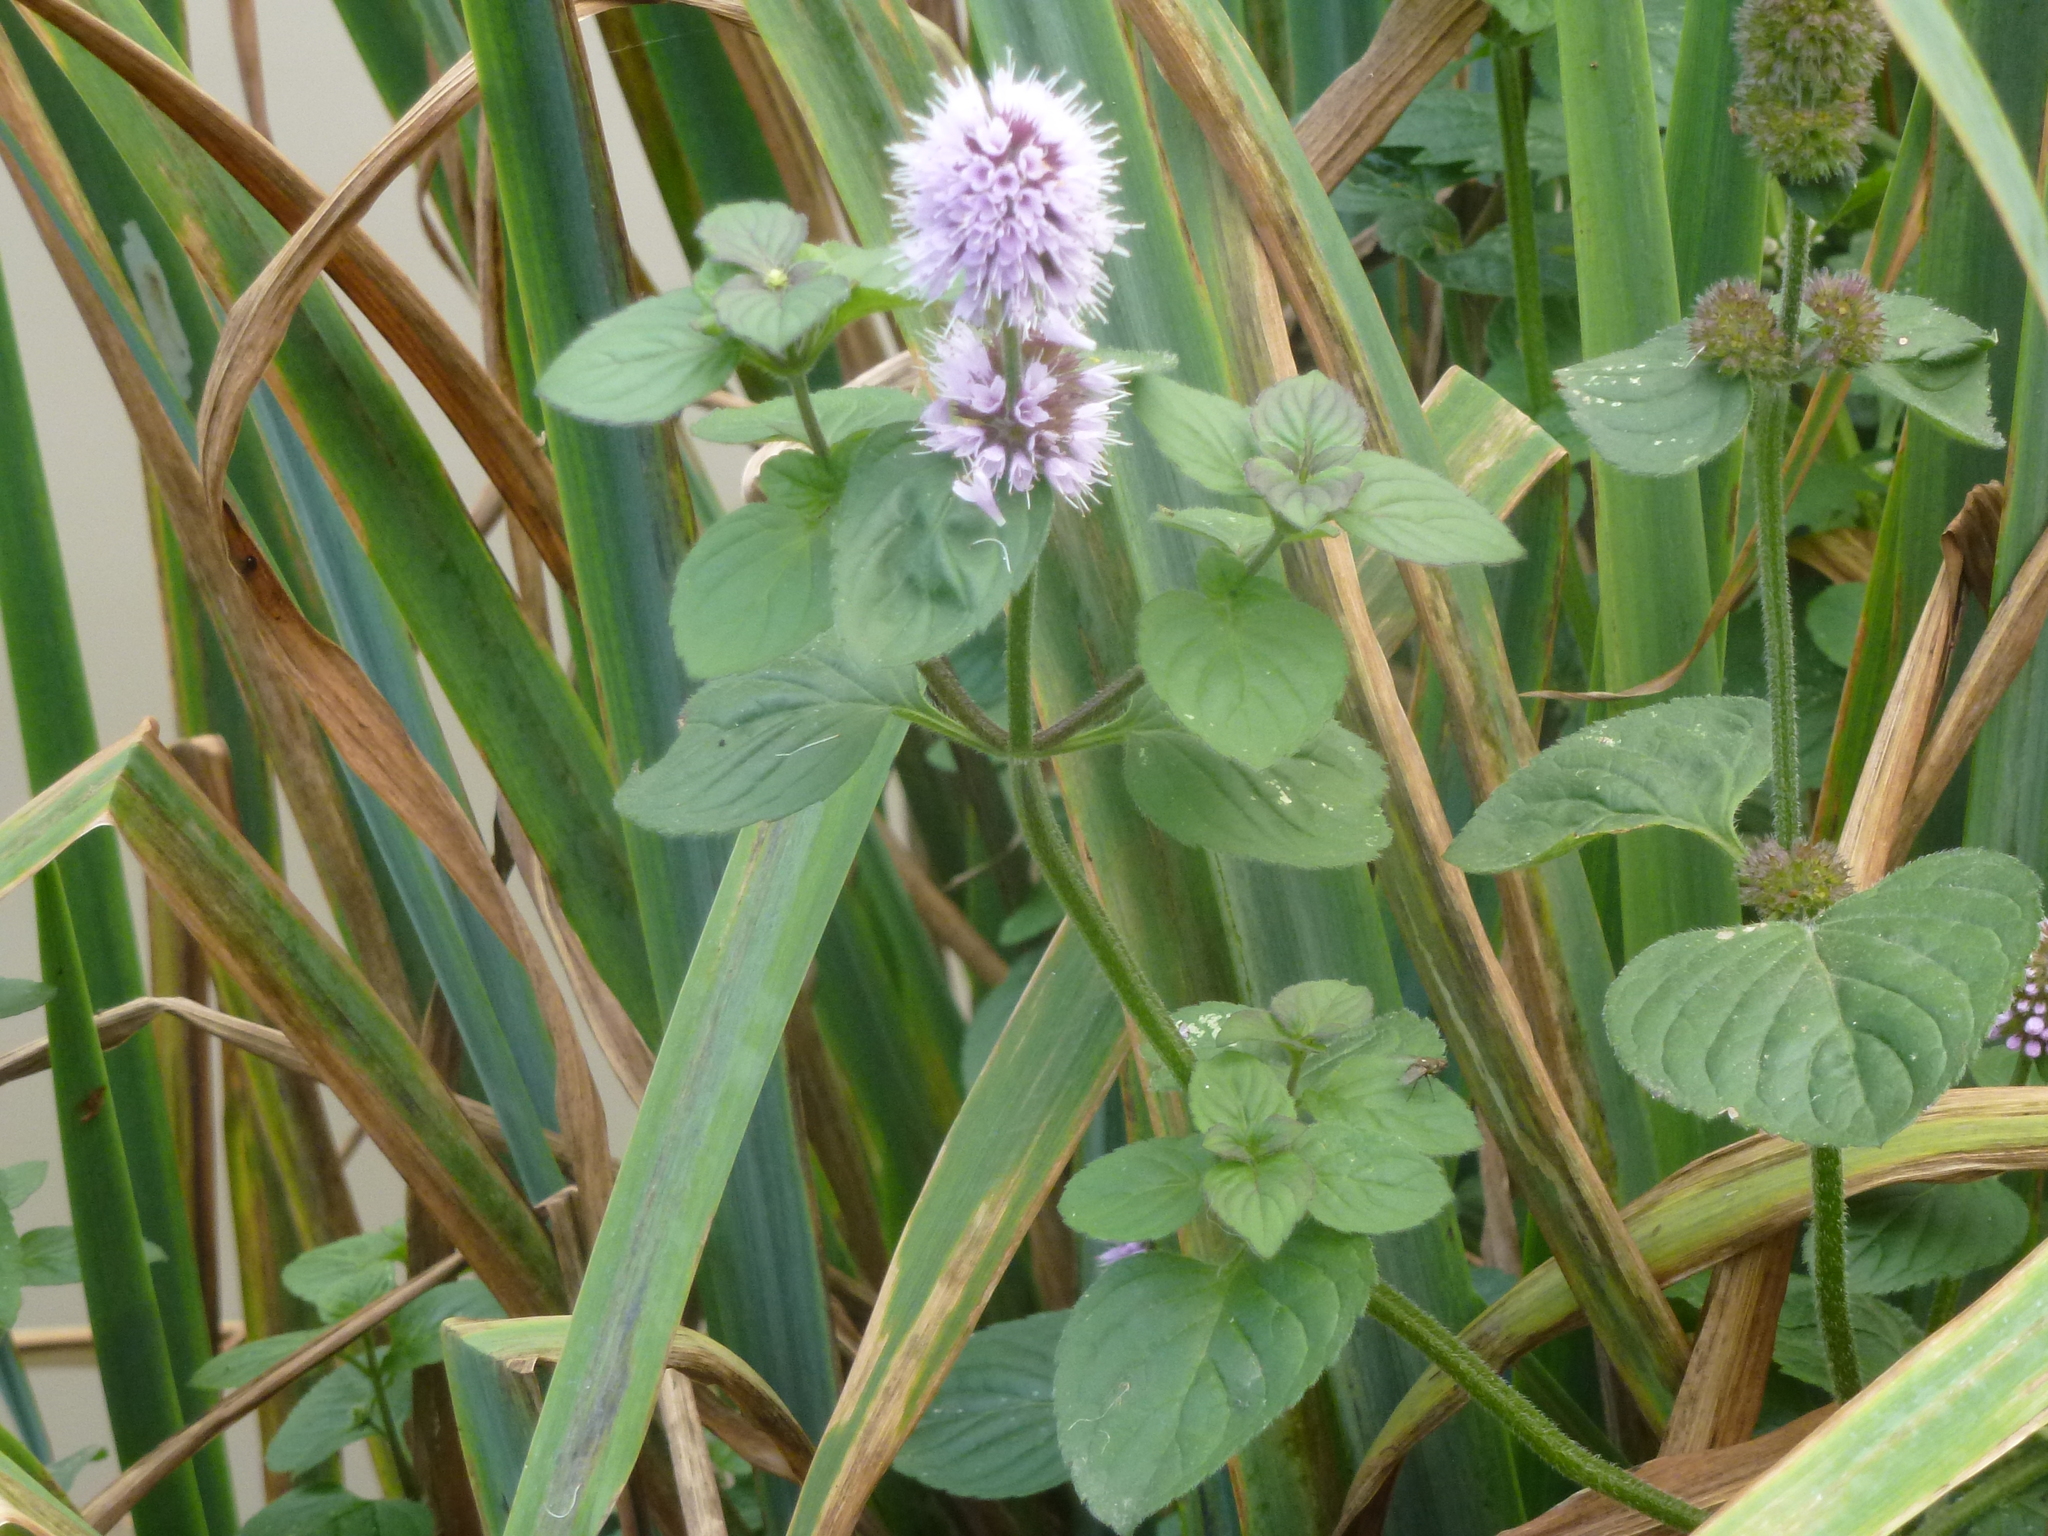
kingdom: Plantae
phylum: Tracheophyta
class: Magnoliopsida
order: Lamiales
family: Lamiaceae
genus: Mentha
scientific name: Mentha aquatica
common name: Water mint
